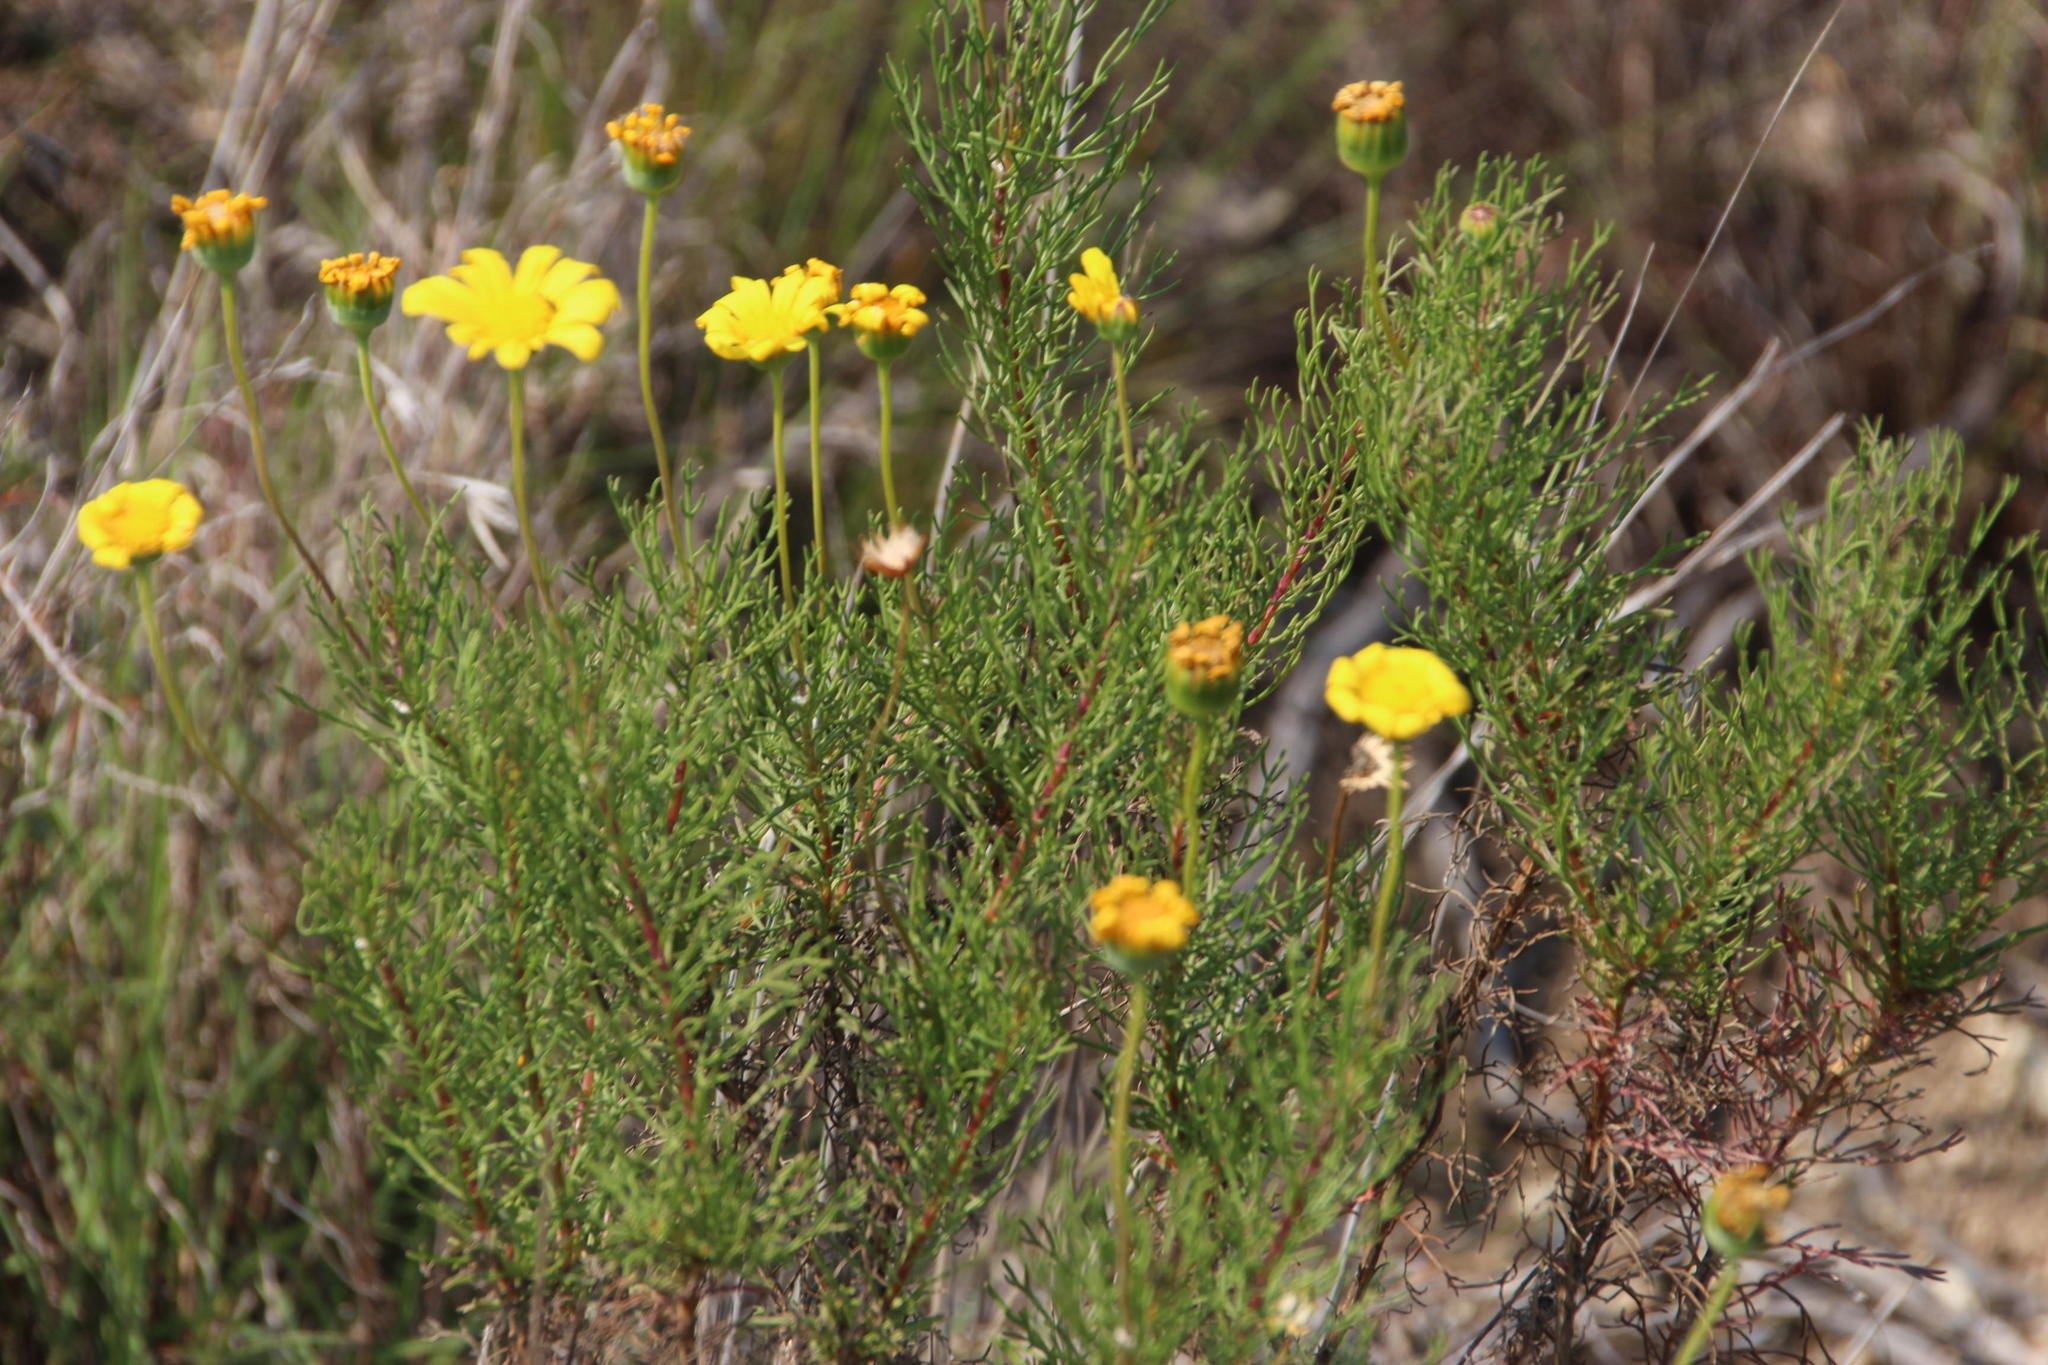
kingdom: Plantae
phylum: Tracheophyta
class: Magnoliopsida
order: Asterales
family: Asteraceae
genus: Euryops
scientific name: Euryops abrotanifolius
